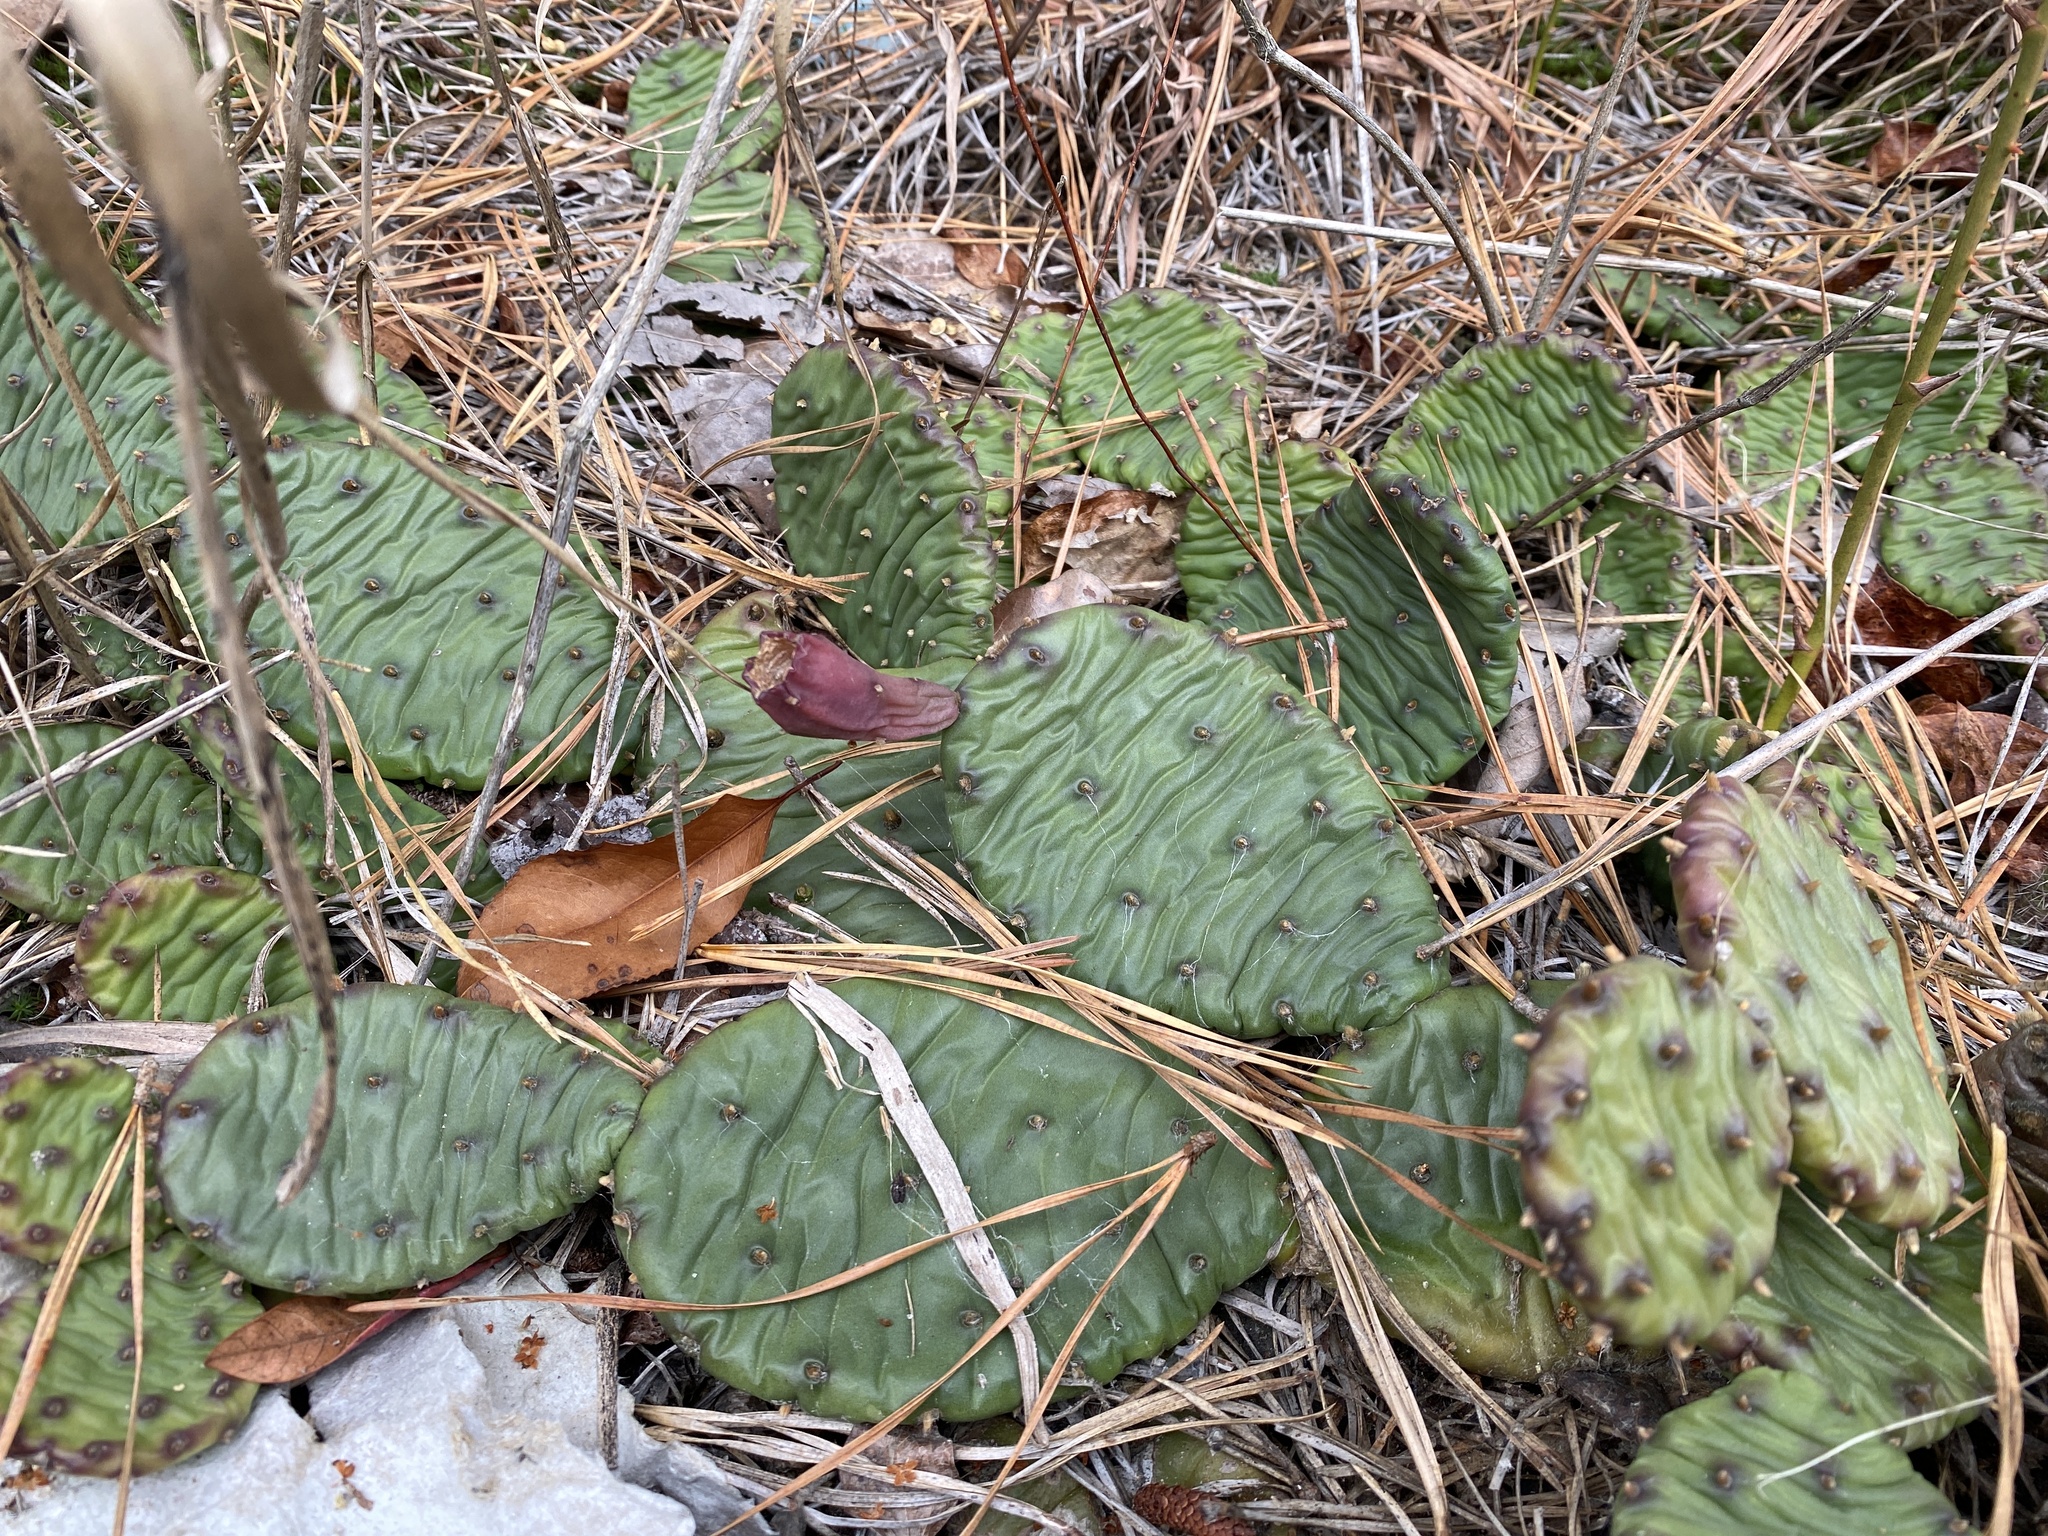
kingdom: Plantae
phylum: Tracheophyta
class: Magnoliopsida
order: Caryophyllales
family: Cactaceae
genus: Opuntia
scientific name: Opuntia humifusa
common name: Eastern prickly-pear
